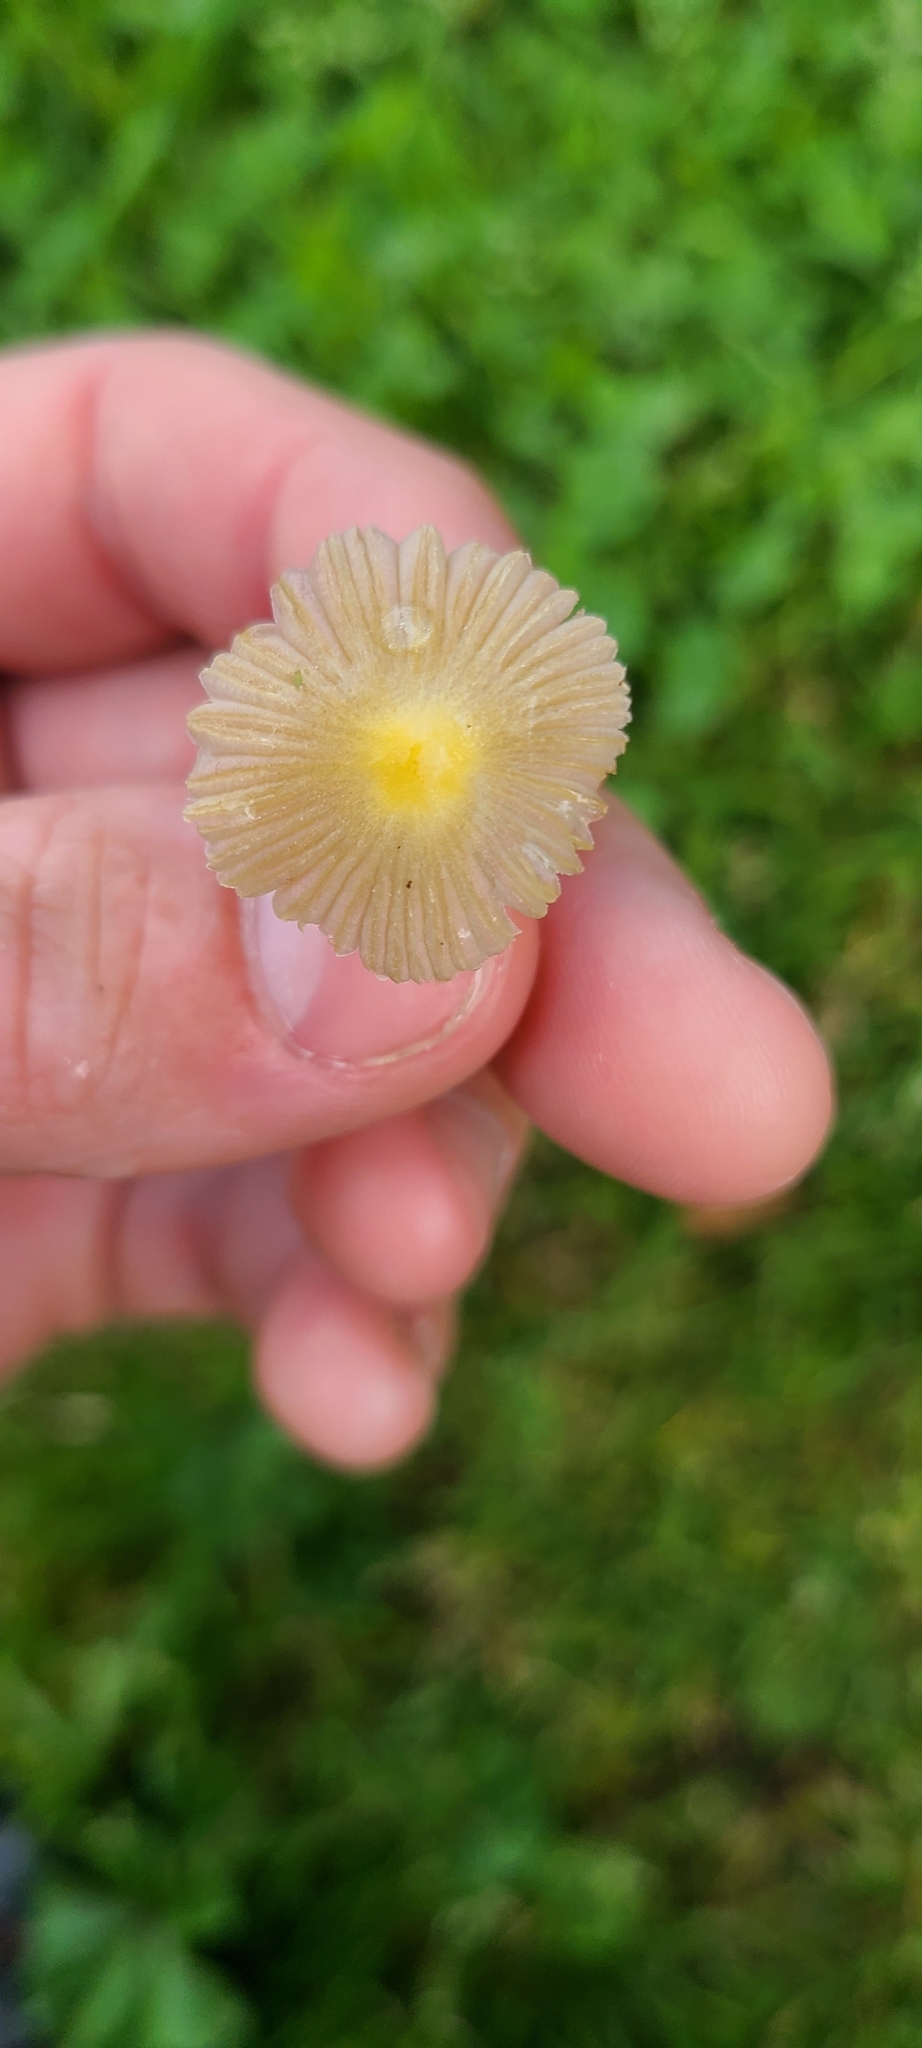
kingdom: Fungi
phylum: Basidiomycota
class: Agaricomycetes
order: Agaricales
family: Bolbitiaceae
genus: Bolbitius
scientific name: Bolbitius titubans
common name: Yellow fieldcap
